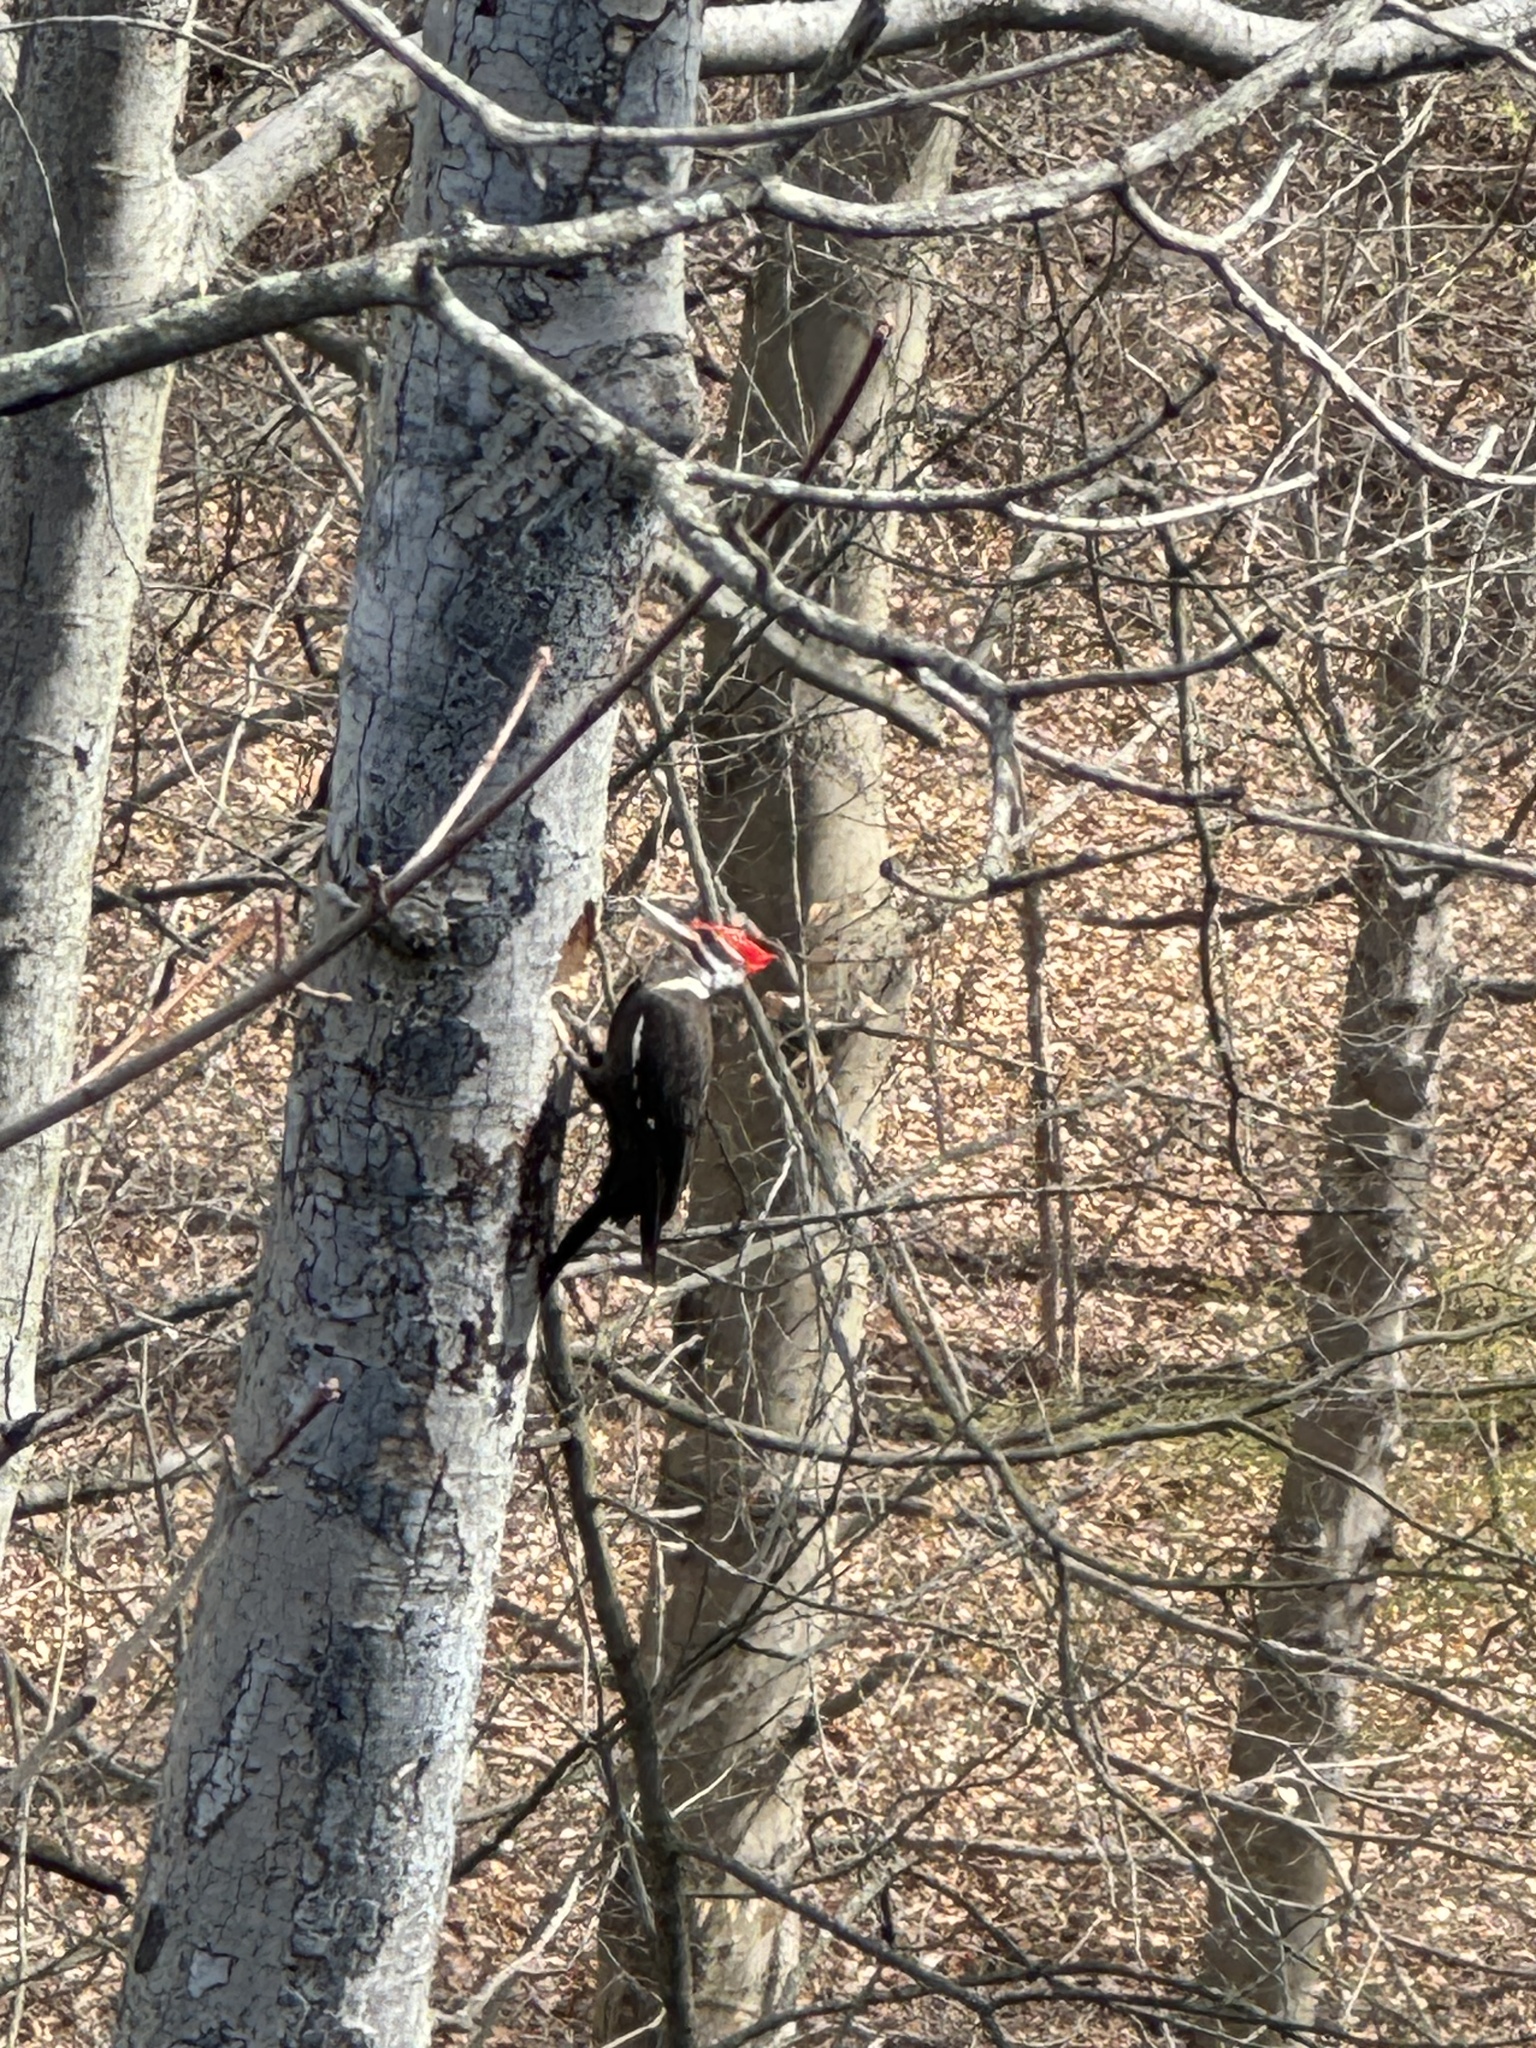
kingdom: Animalia
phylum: Chordata
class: Aves
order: Piciformes
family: Picidae
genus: Dryocopus
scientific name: Dryocopus pileatus
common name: Pileated woodpecker
